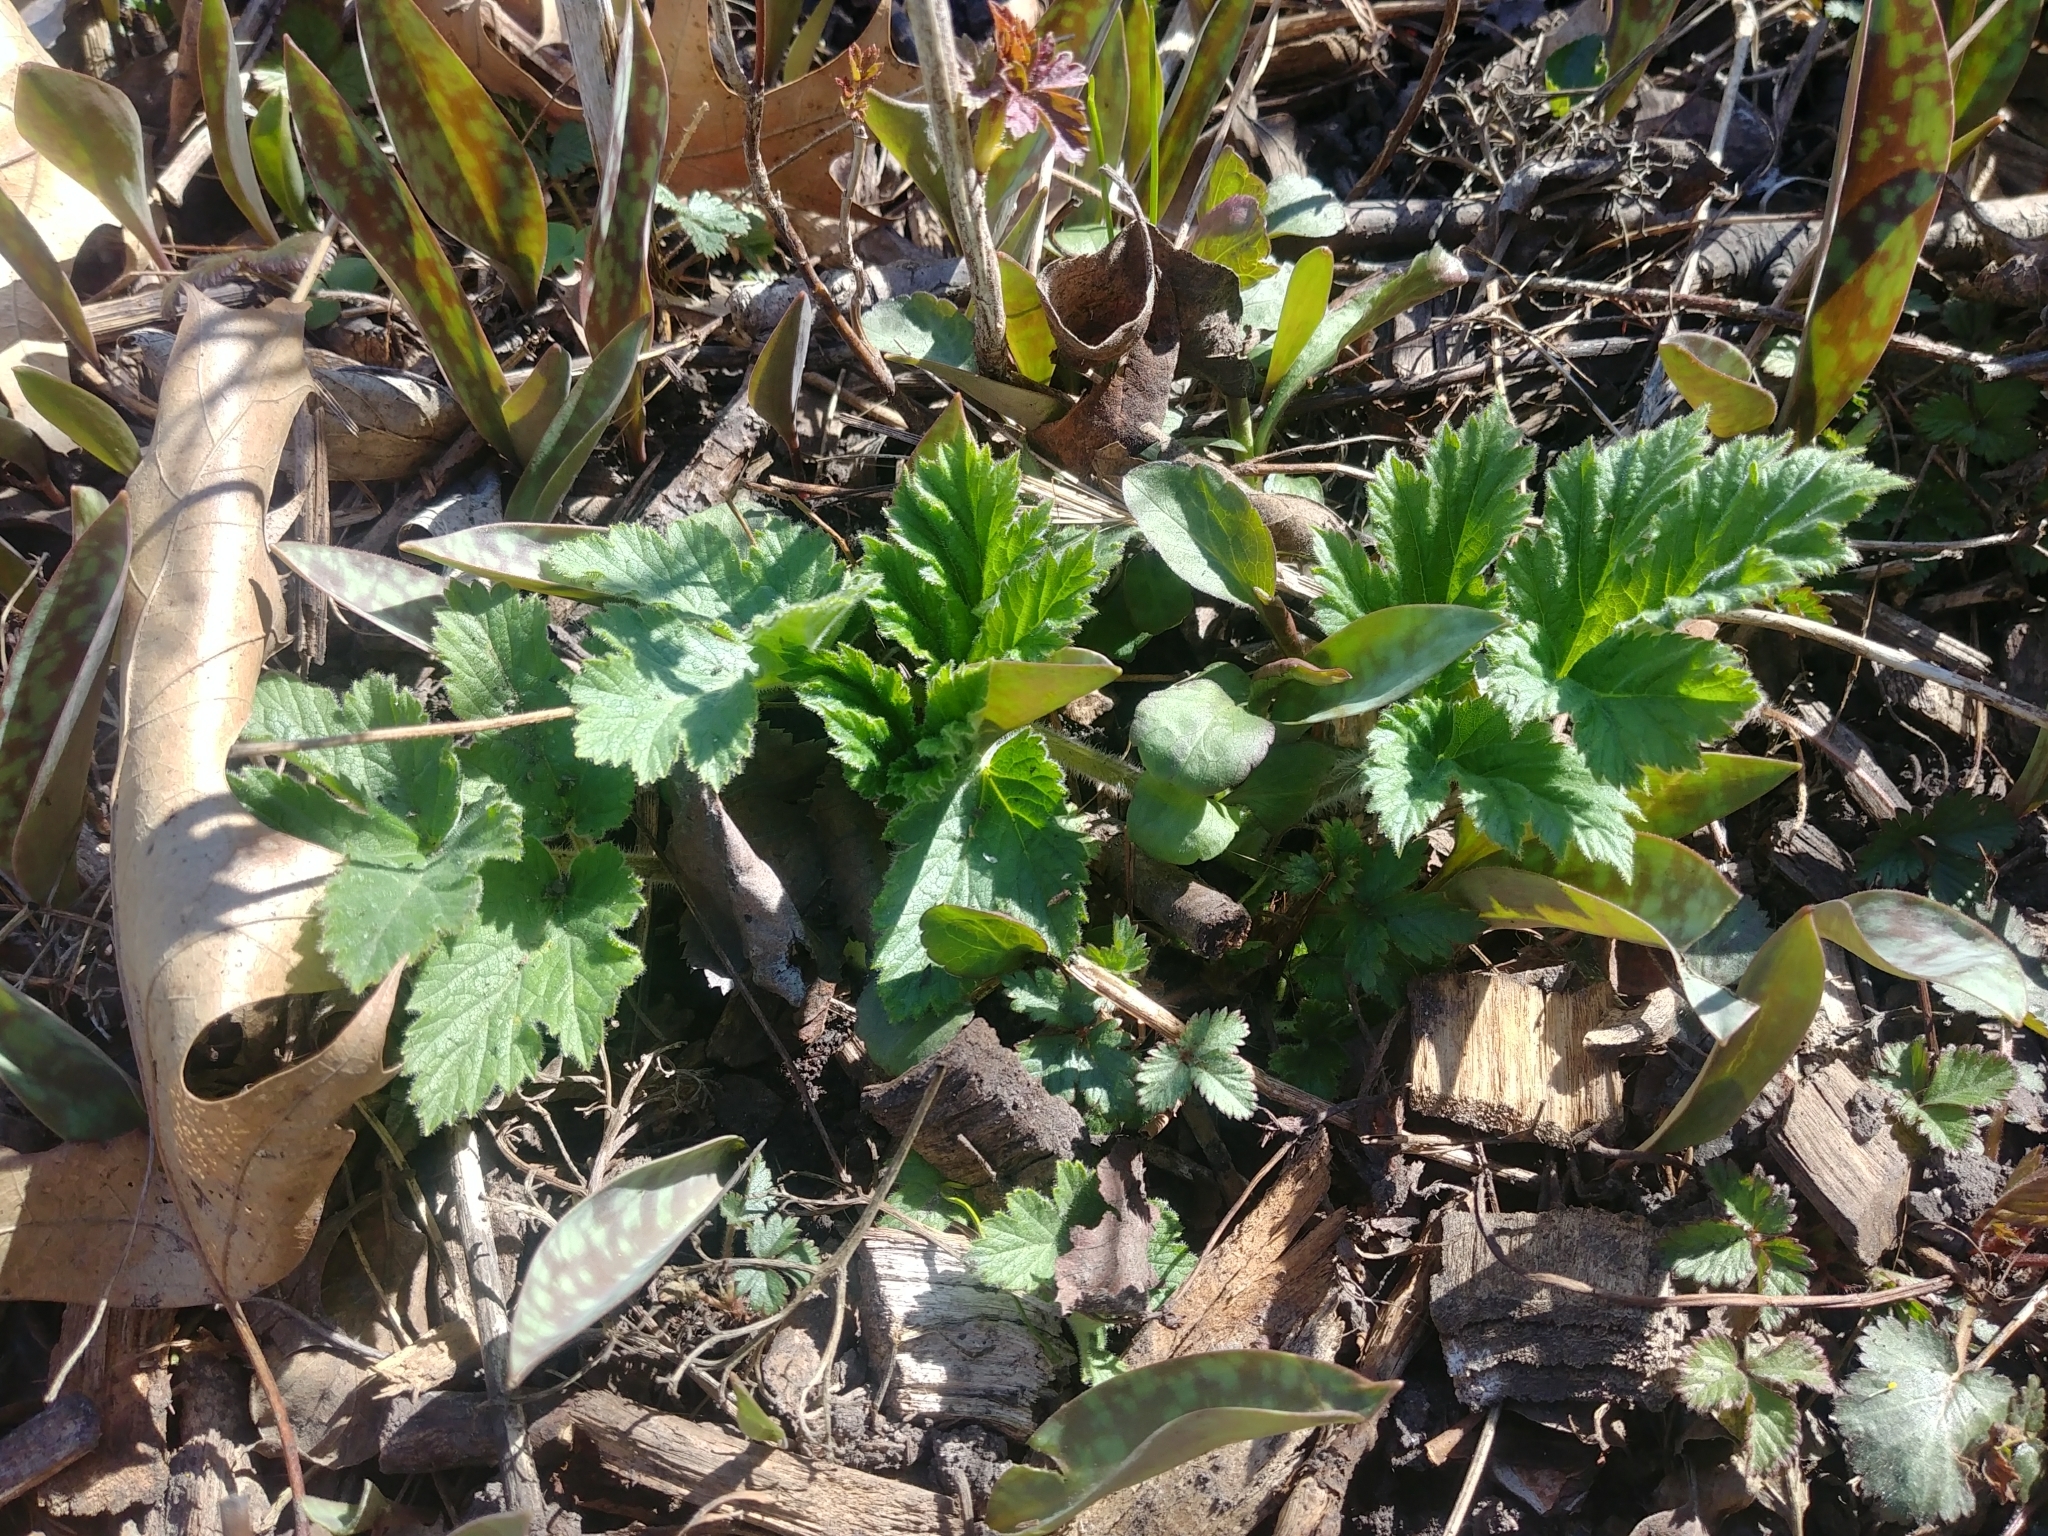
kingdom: Plantae
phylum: Tracheophyta
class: Magnoliopsida
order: Apiales
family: Apiaceae
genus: Heracleum
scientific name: Heracleum maximum
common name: American cow parsnip
